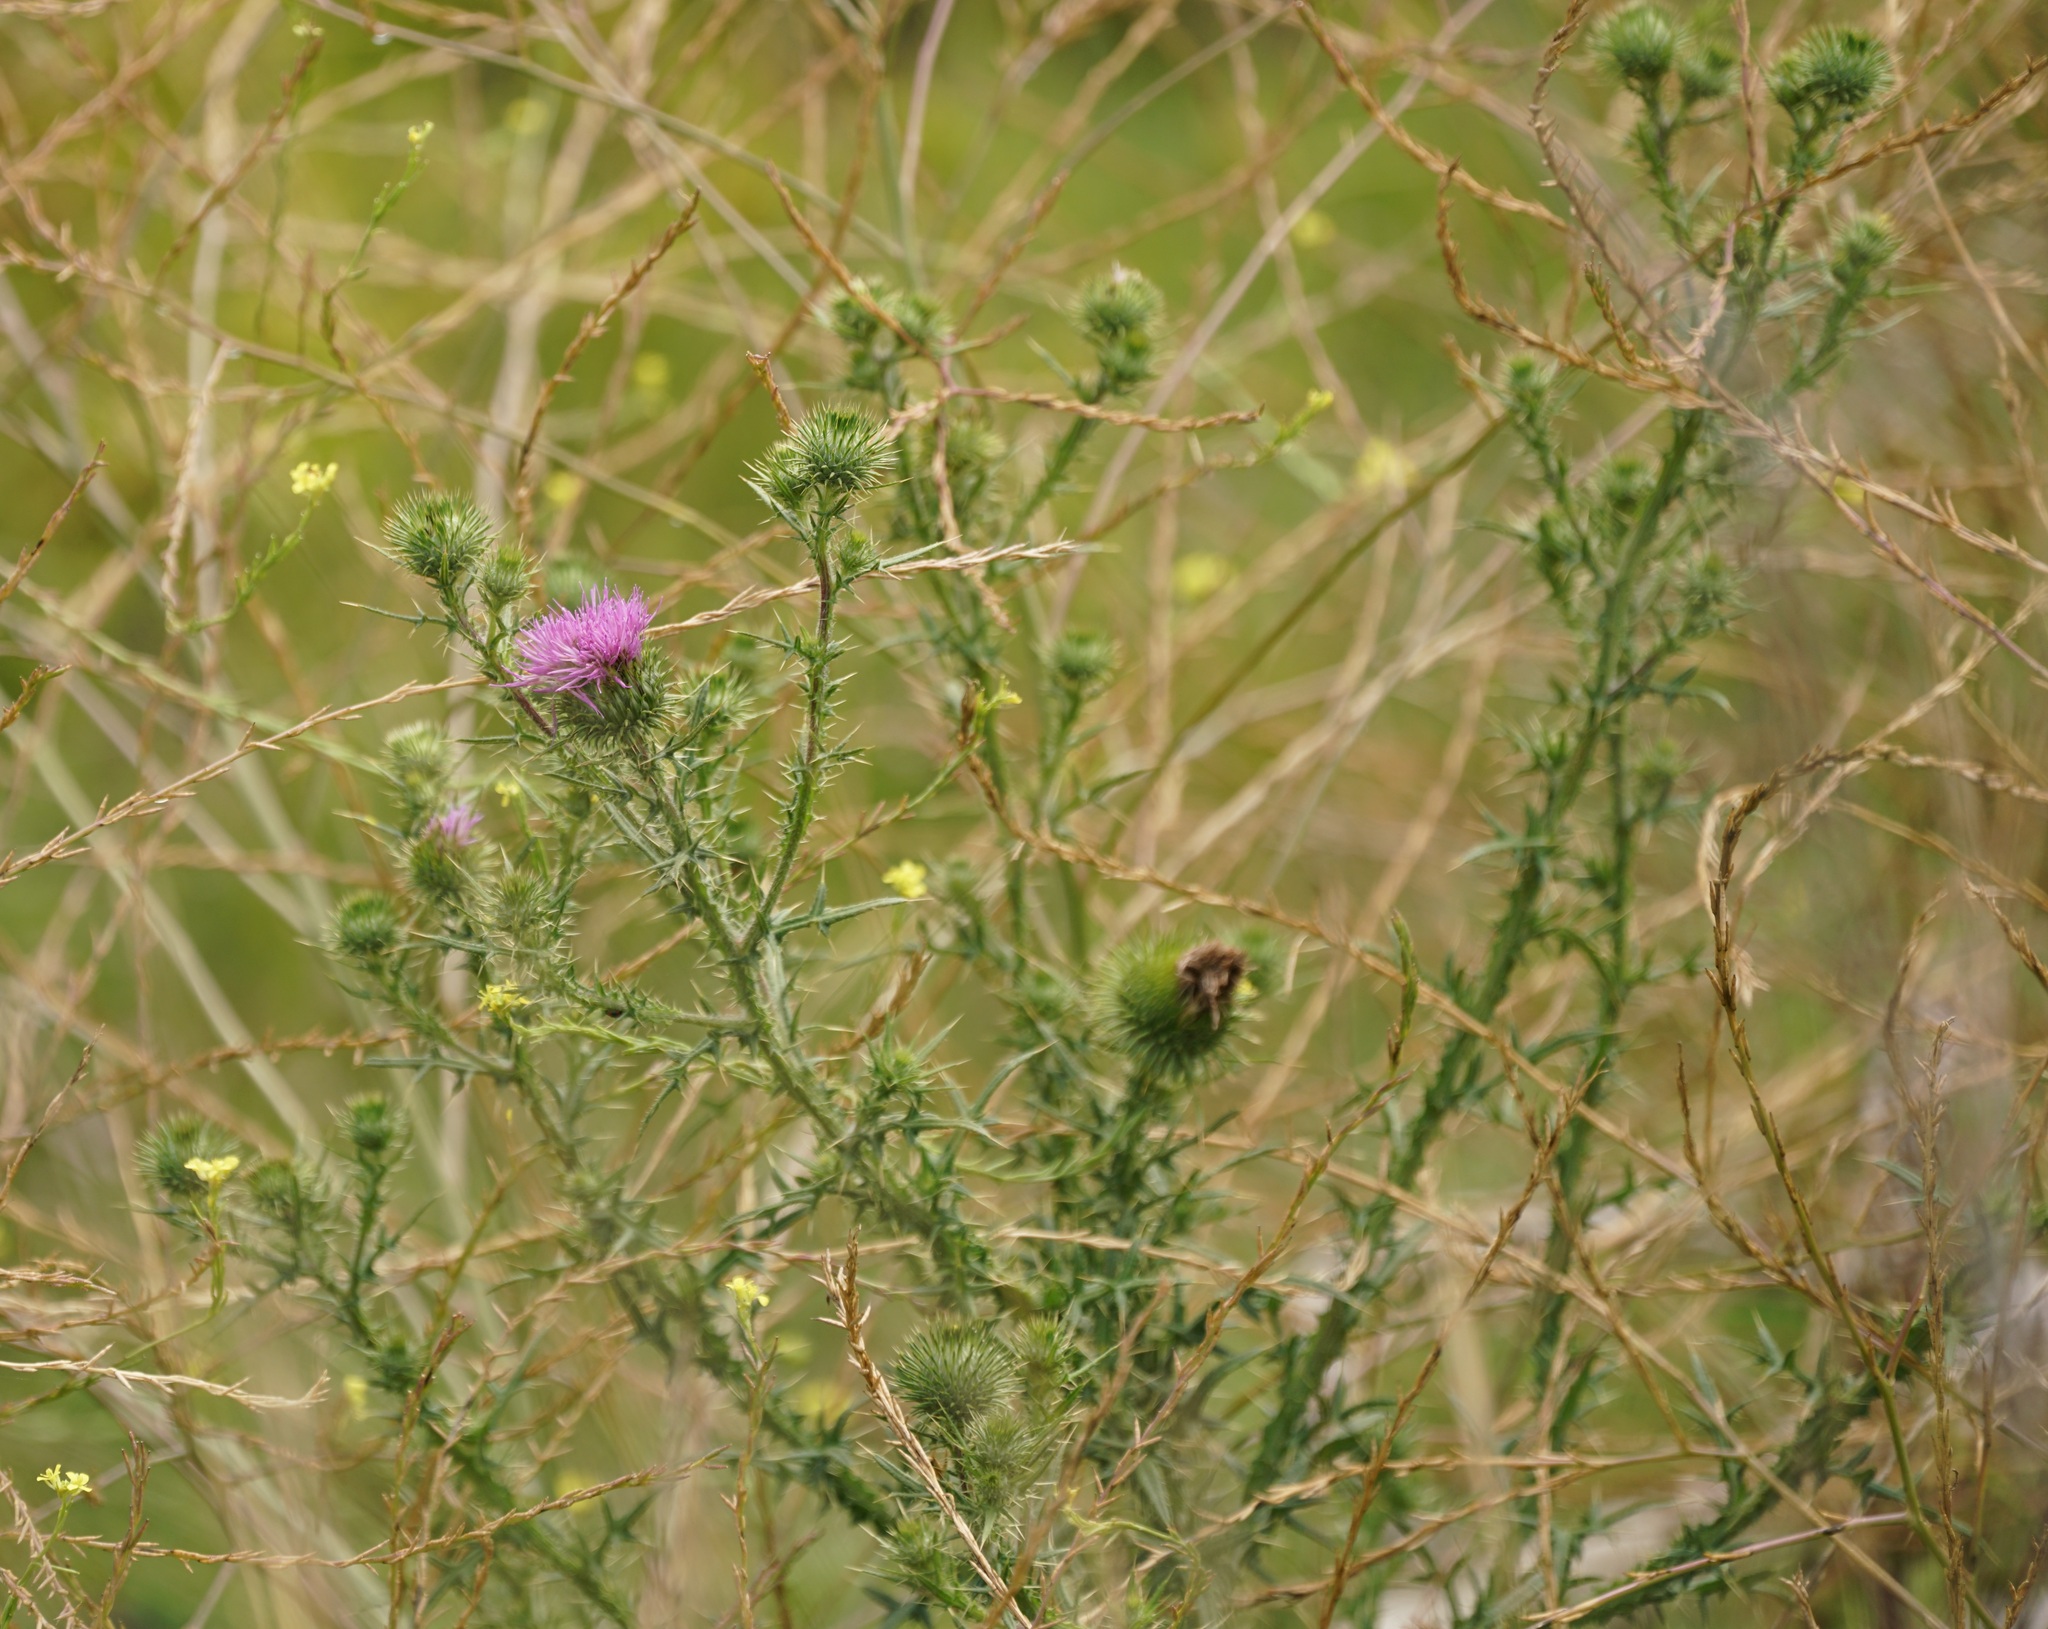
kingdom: Plantae
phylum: Tracheophyta
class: Magnoliopsida
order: Asterales
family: Asteraceae
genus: Cirsium
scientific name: Cirsium vulgare
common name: Bull thistle
